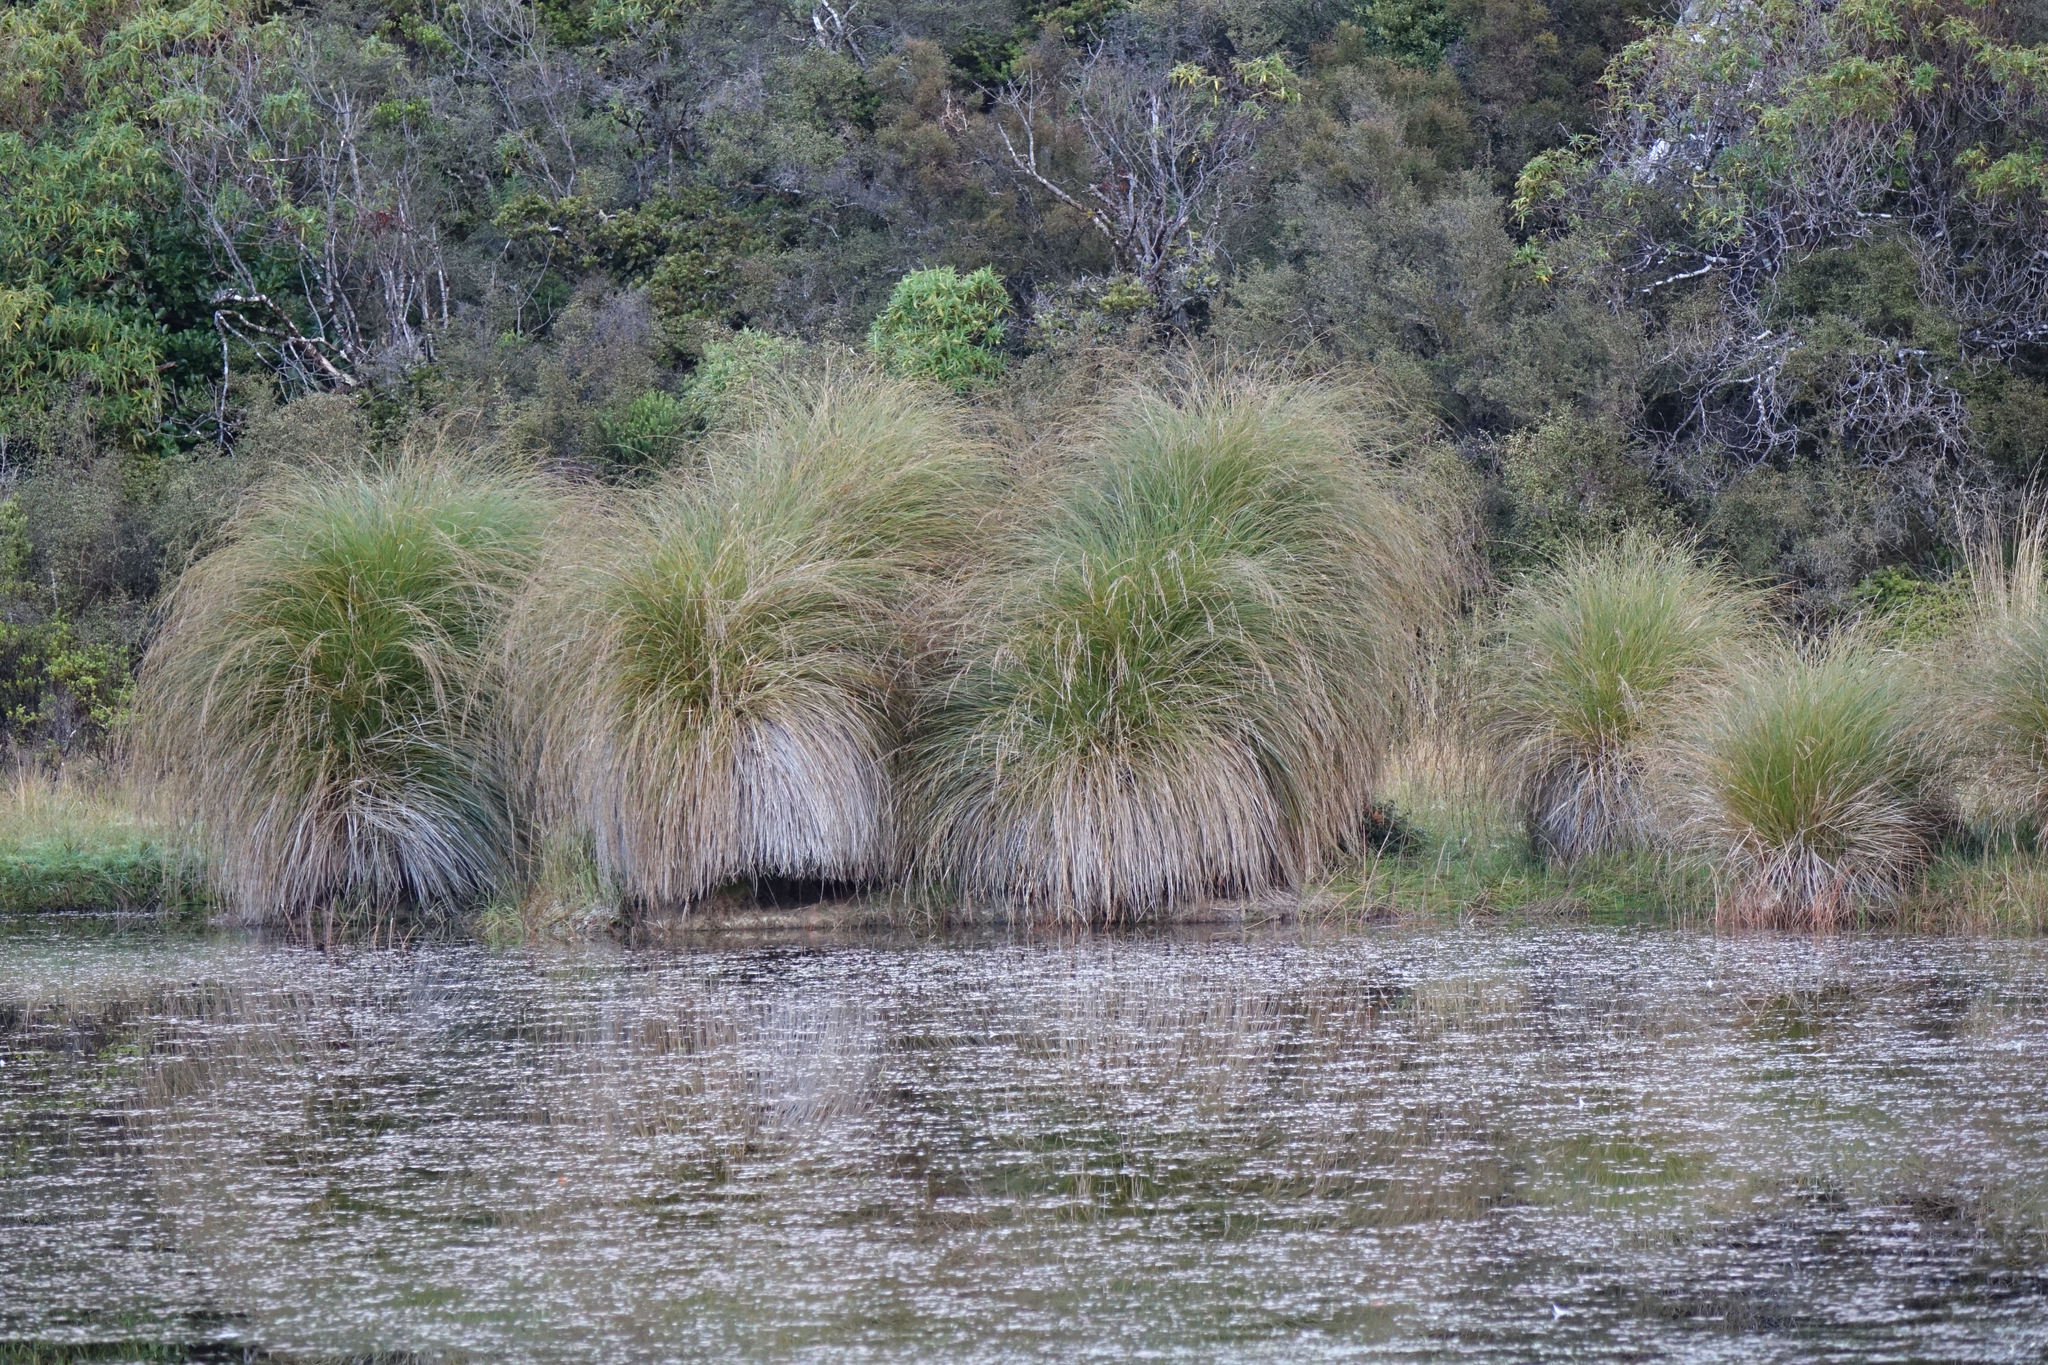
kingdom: Plantae
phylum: Tracheophyta
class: Liliopsida
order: Poales
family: Cyperaceae
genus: Carex
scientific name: Carex secta
